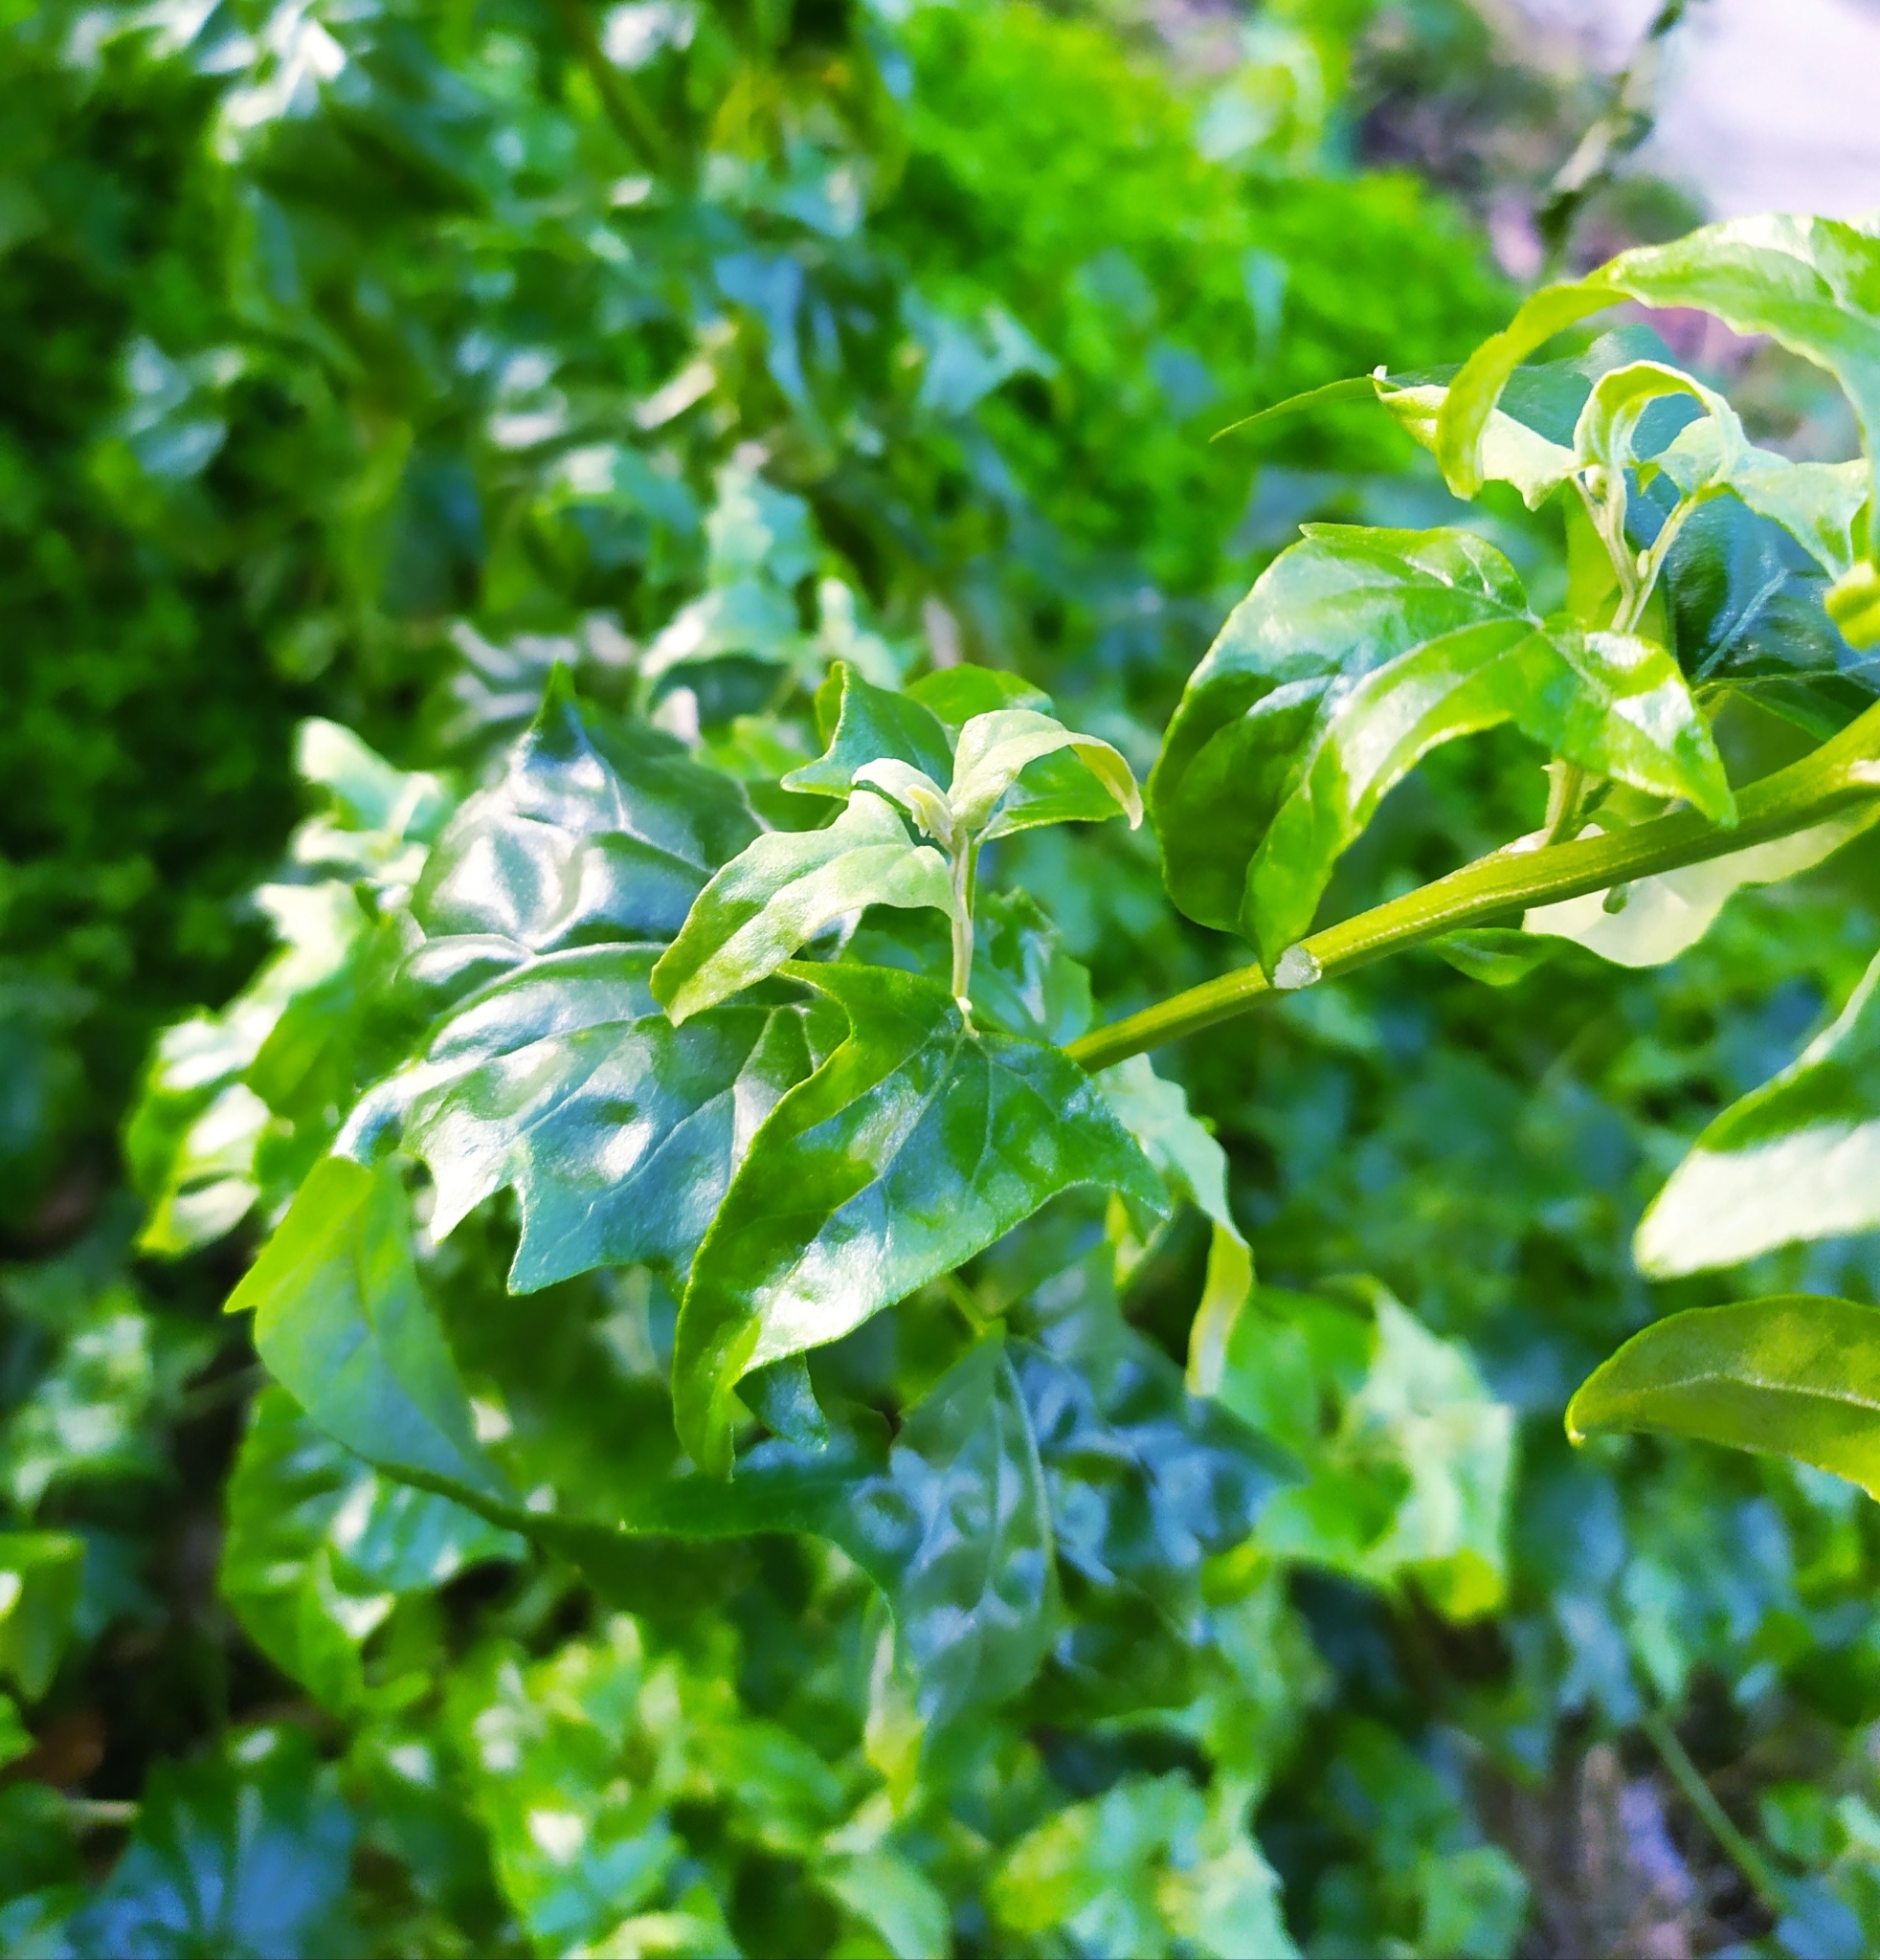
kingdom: Plantae
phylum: Tracheophyta
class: Magnoliopsida
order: Caryophyllales
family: Amaranthaceae
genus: Atriplex
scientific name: Atriplex sagittata
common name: Purple orache
